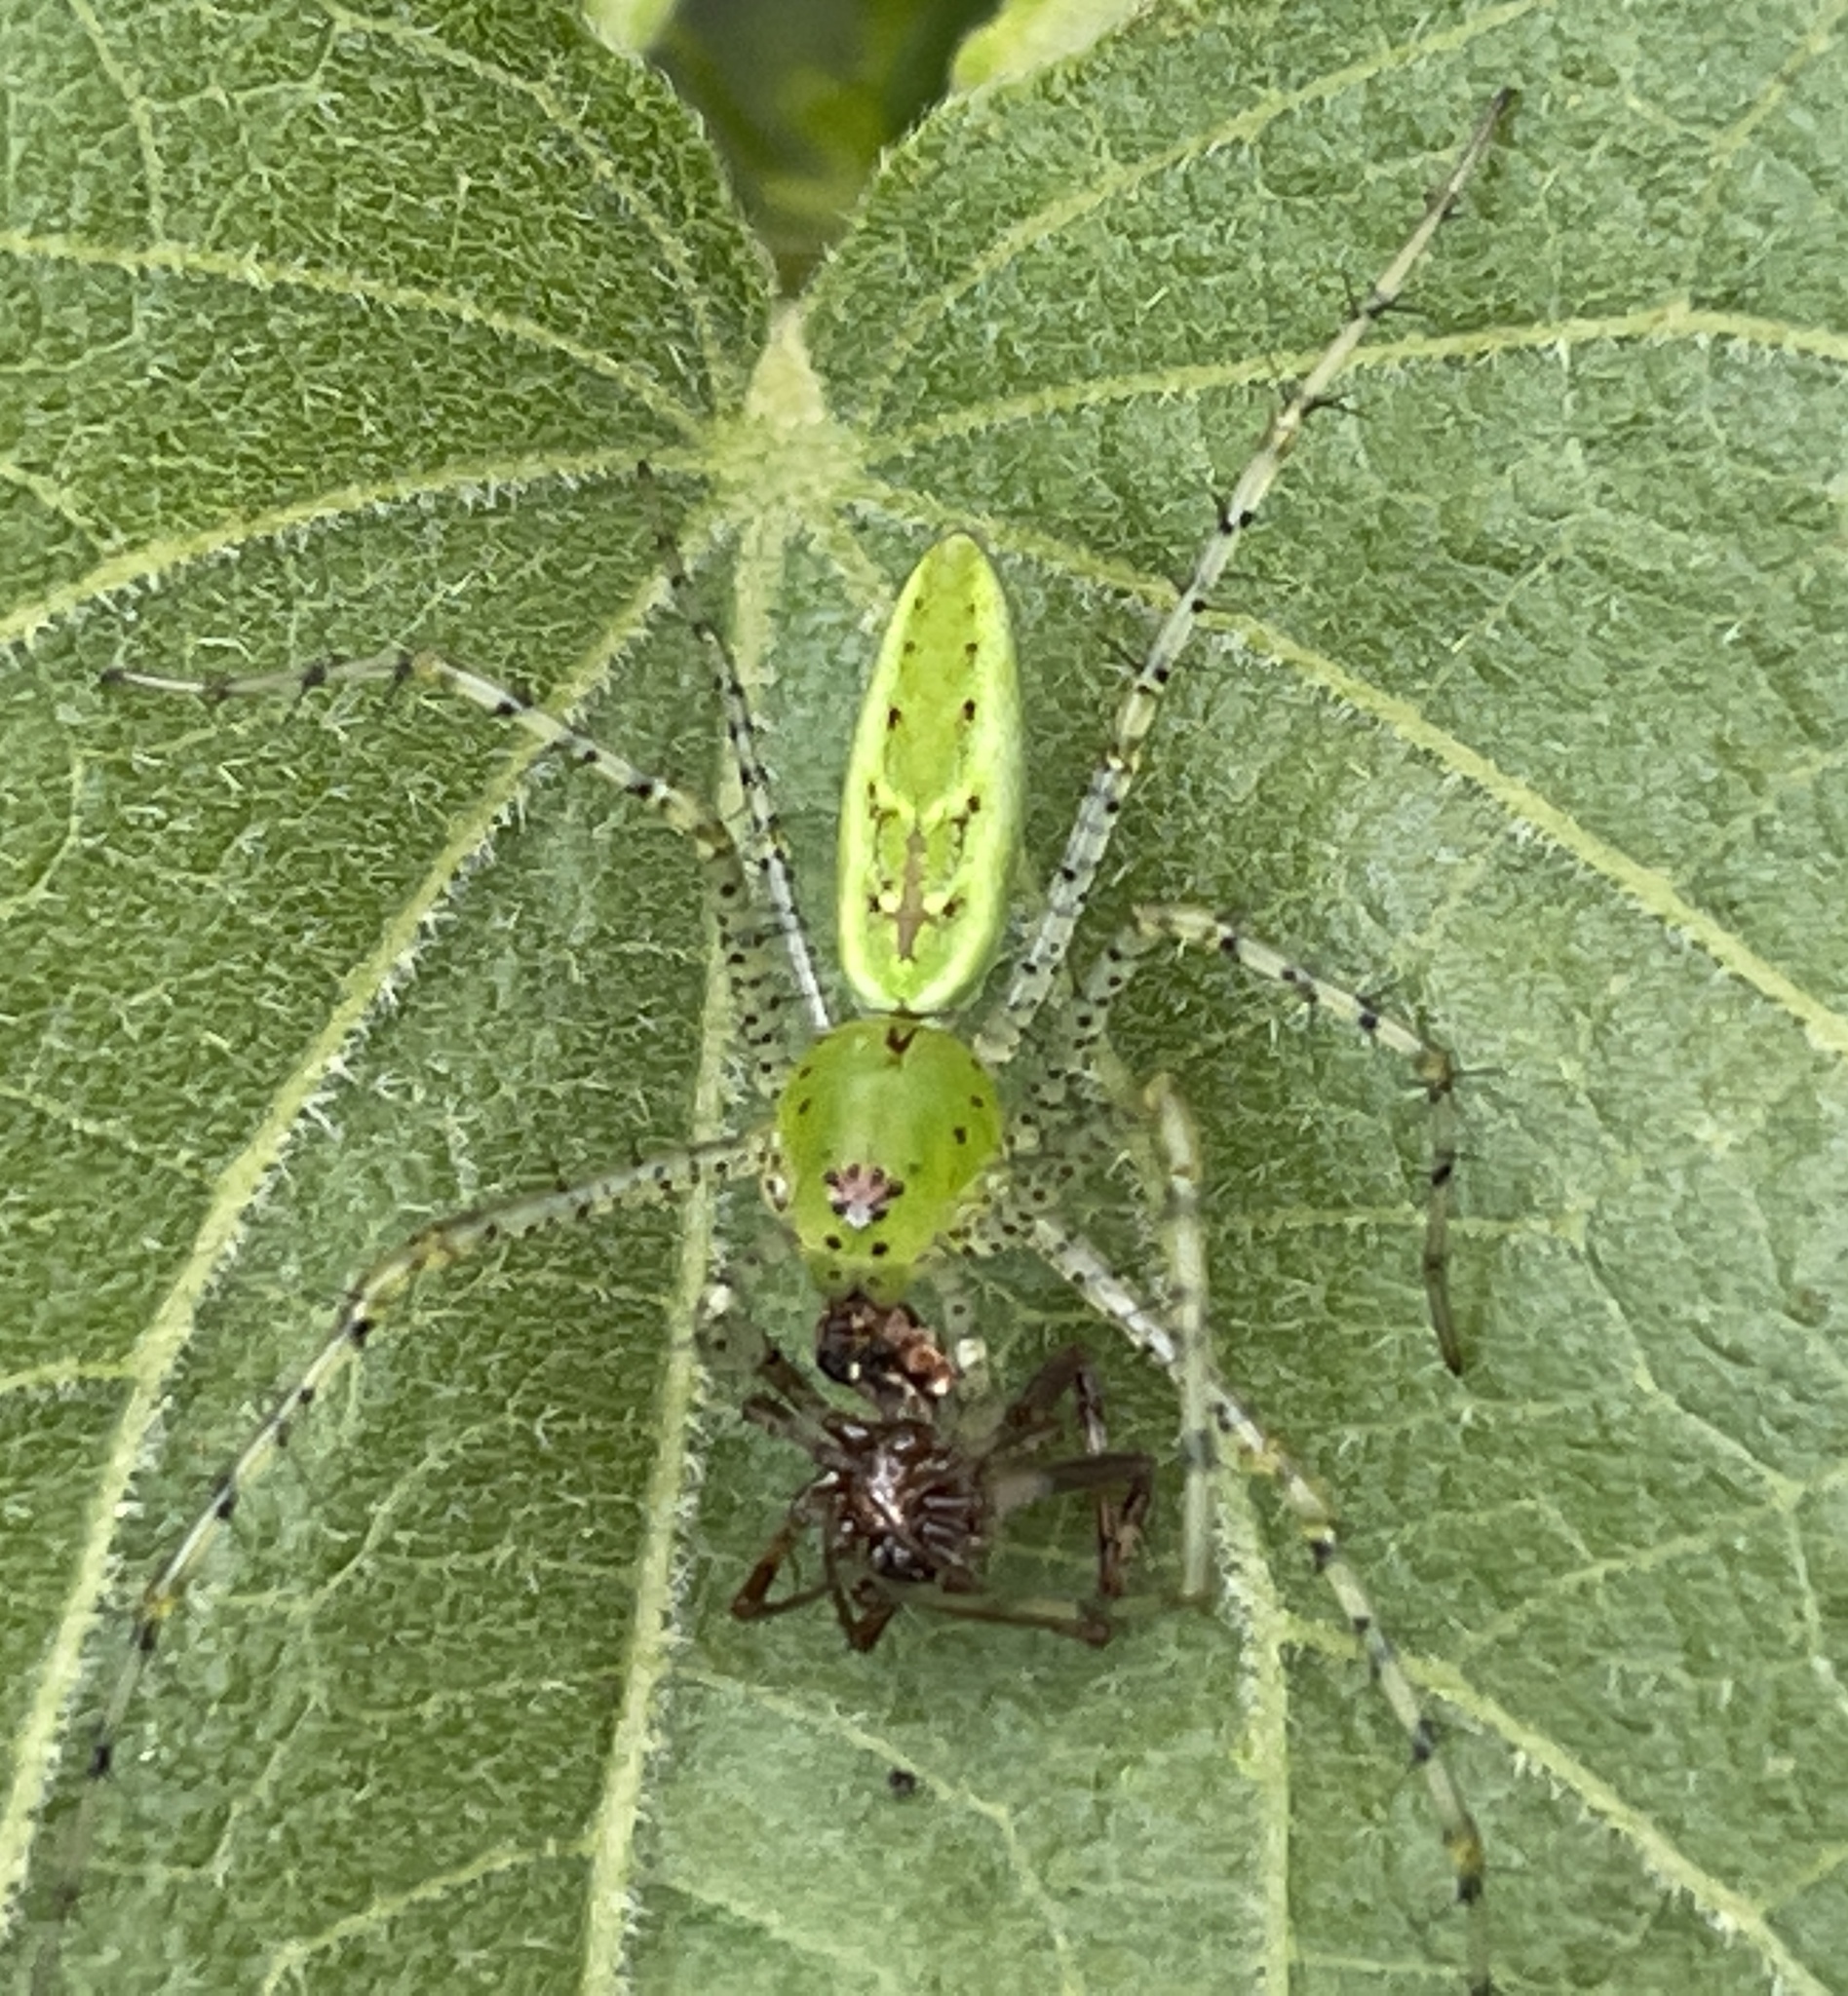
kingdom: Animalia
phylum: Arthropoda
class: Arachnida
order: Araneae
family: Oxyopidae
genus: Peucetia
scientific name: Peucetia viridans
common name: Lynx spiders
